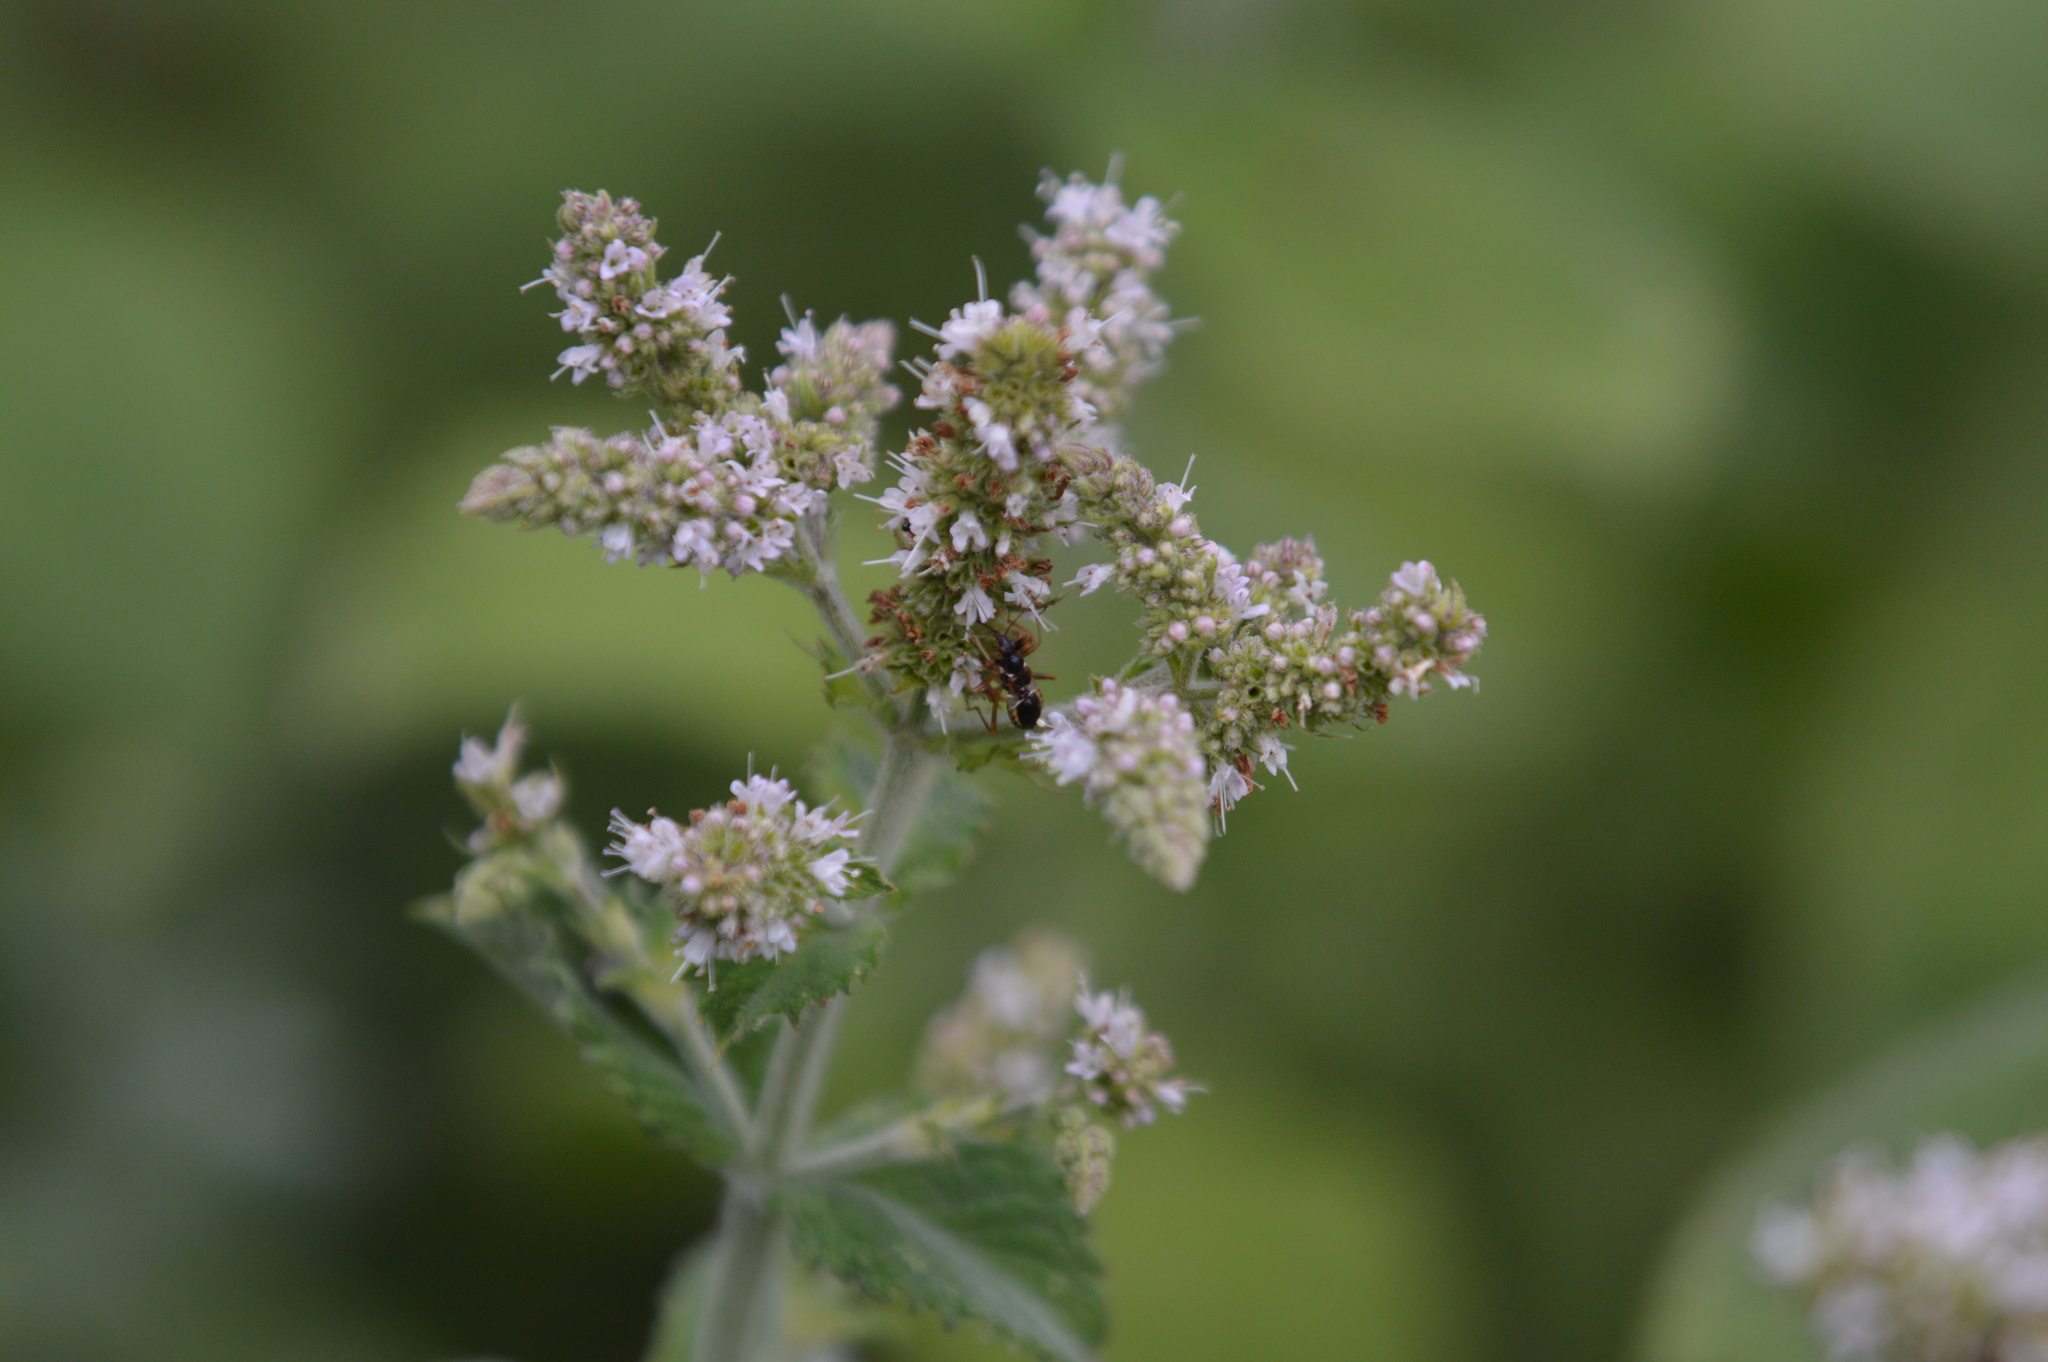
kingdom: Animalia
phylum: Arthropoda
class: Insecta
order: Hemiptera
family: Nabidae
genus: Himacerus
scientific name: Himacerus mirmicoides
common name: Ant damsel bug
